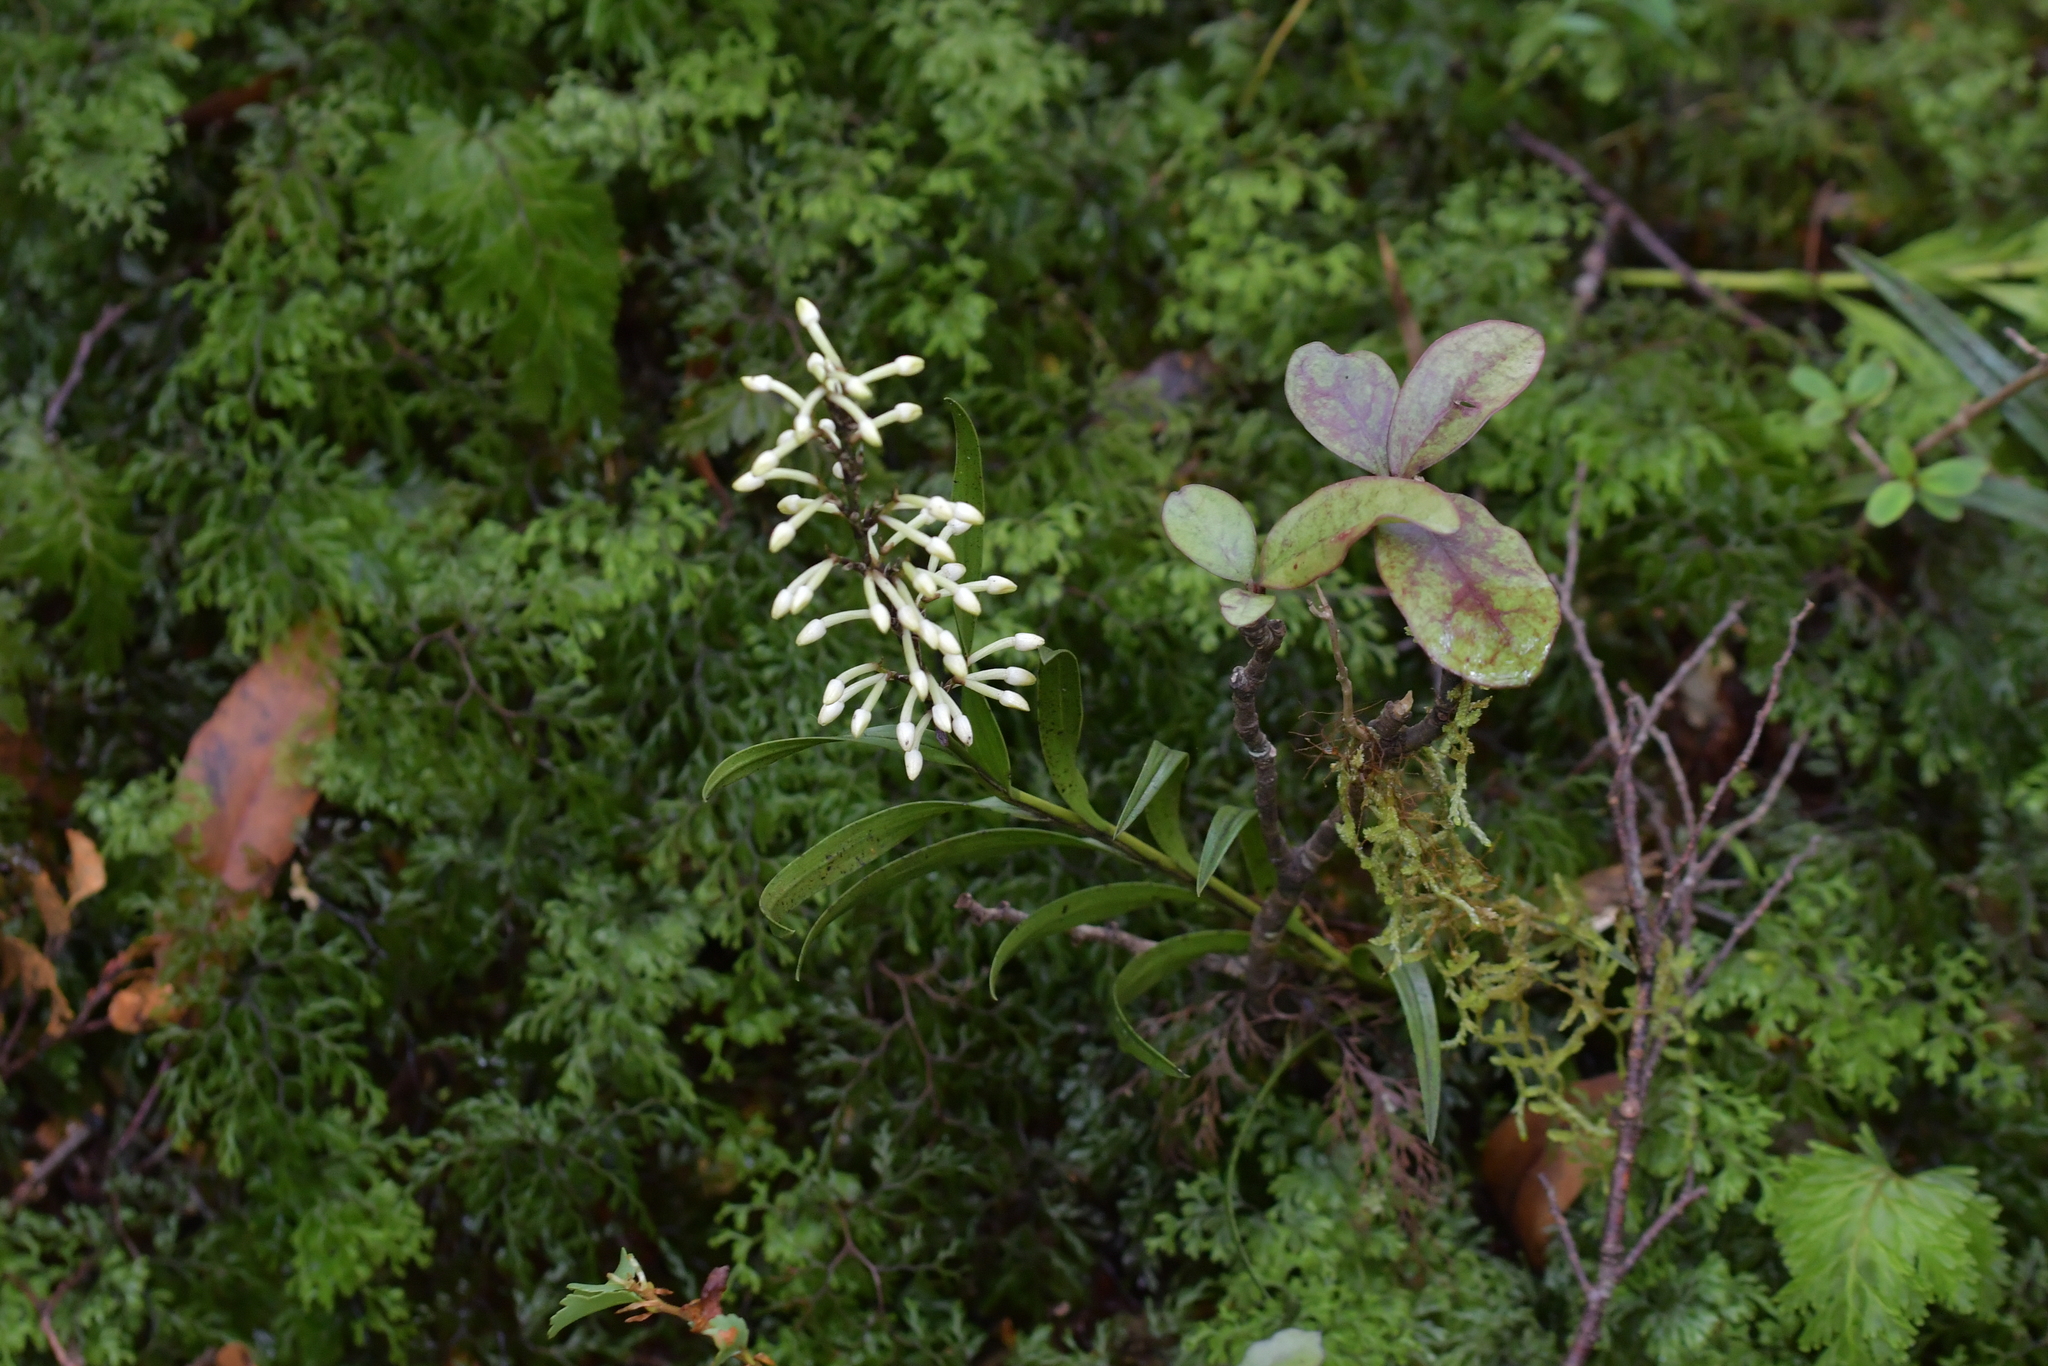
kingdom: Plantae
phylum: Tracheophyta
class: Liliopsida
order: Asparagales
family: Orchidaceae
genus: Earina
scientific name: Earina autumnalis
